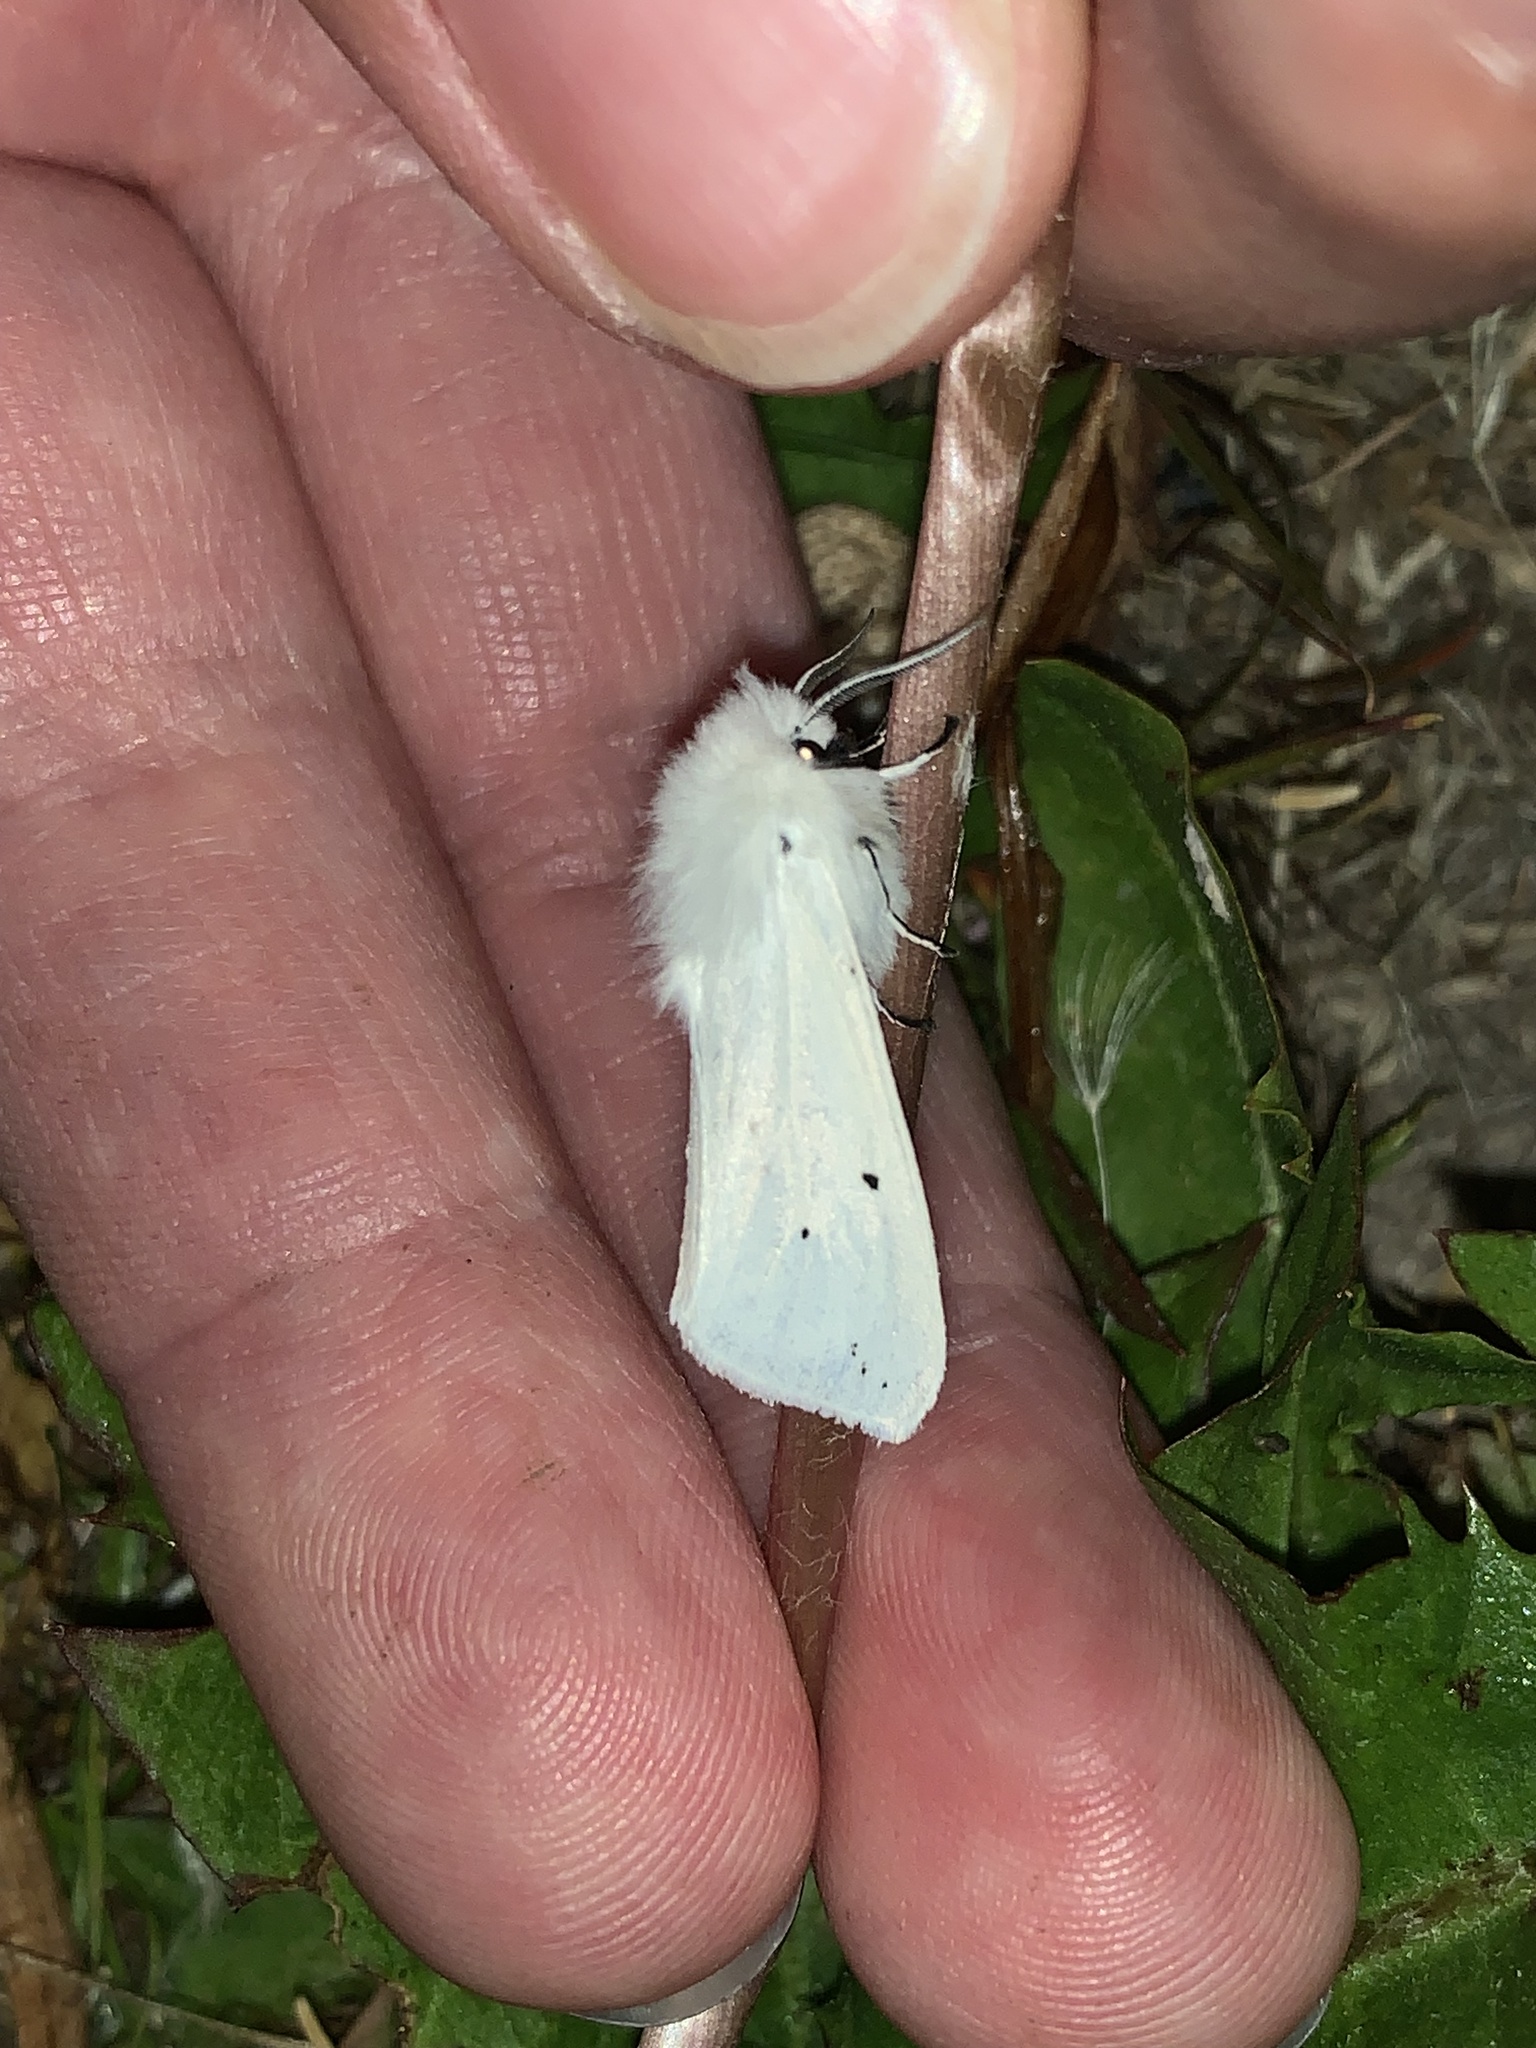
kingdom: Animalia
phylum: Arthropoda
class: Insecta
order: Lepidoptera
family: Erebidae
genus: Spilosoma
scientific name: Spilosoma urticae
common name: Water ermine
